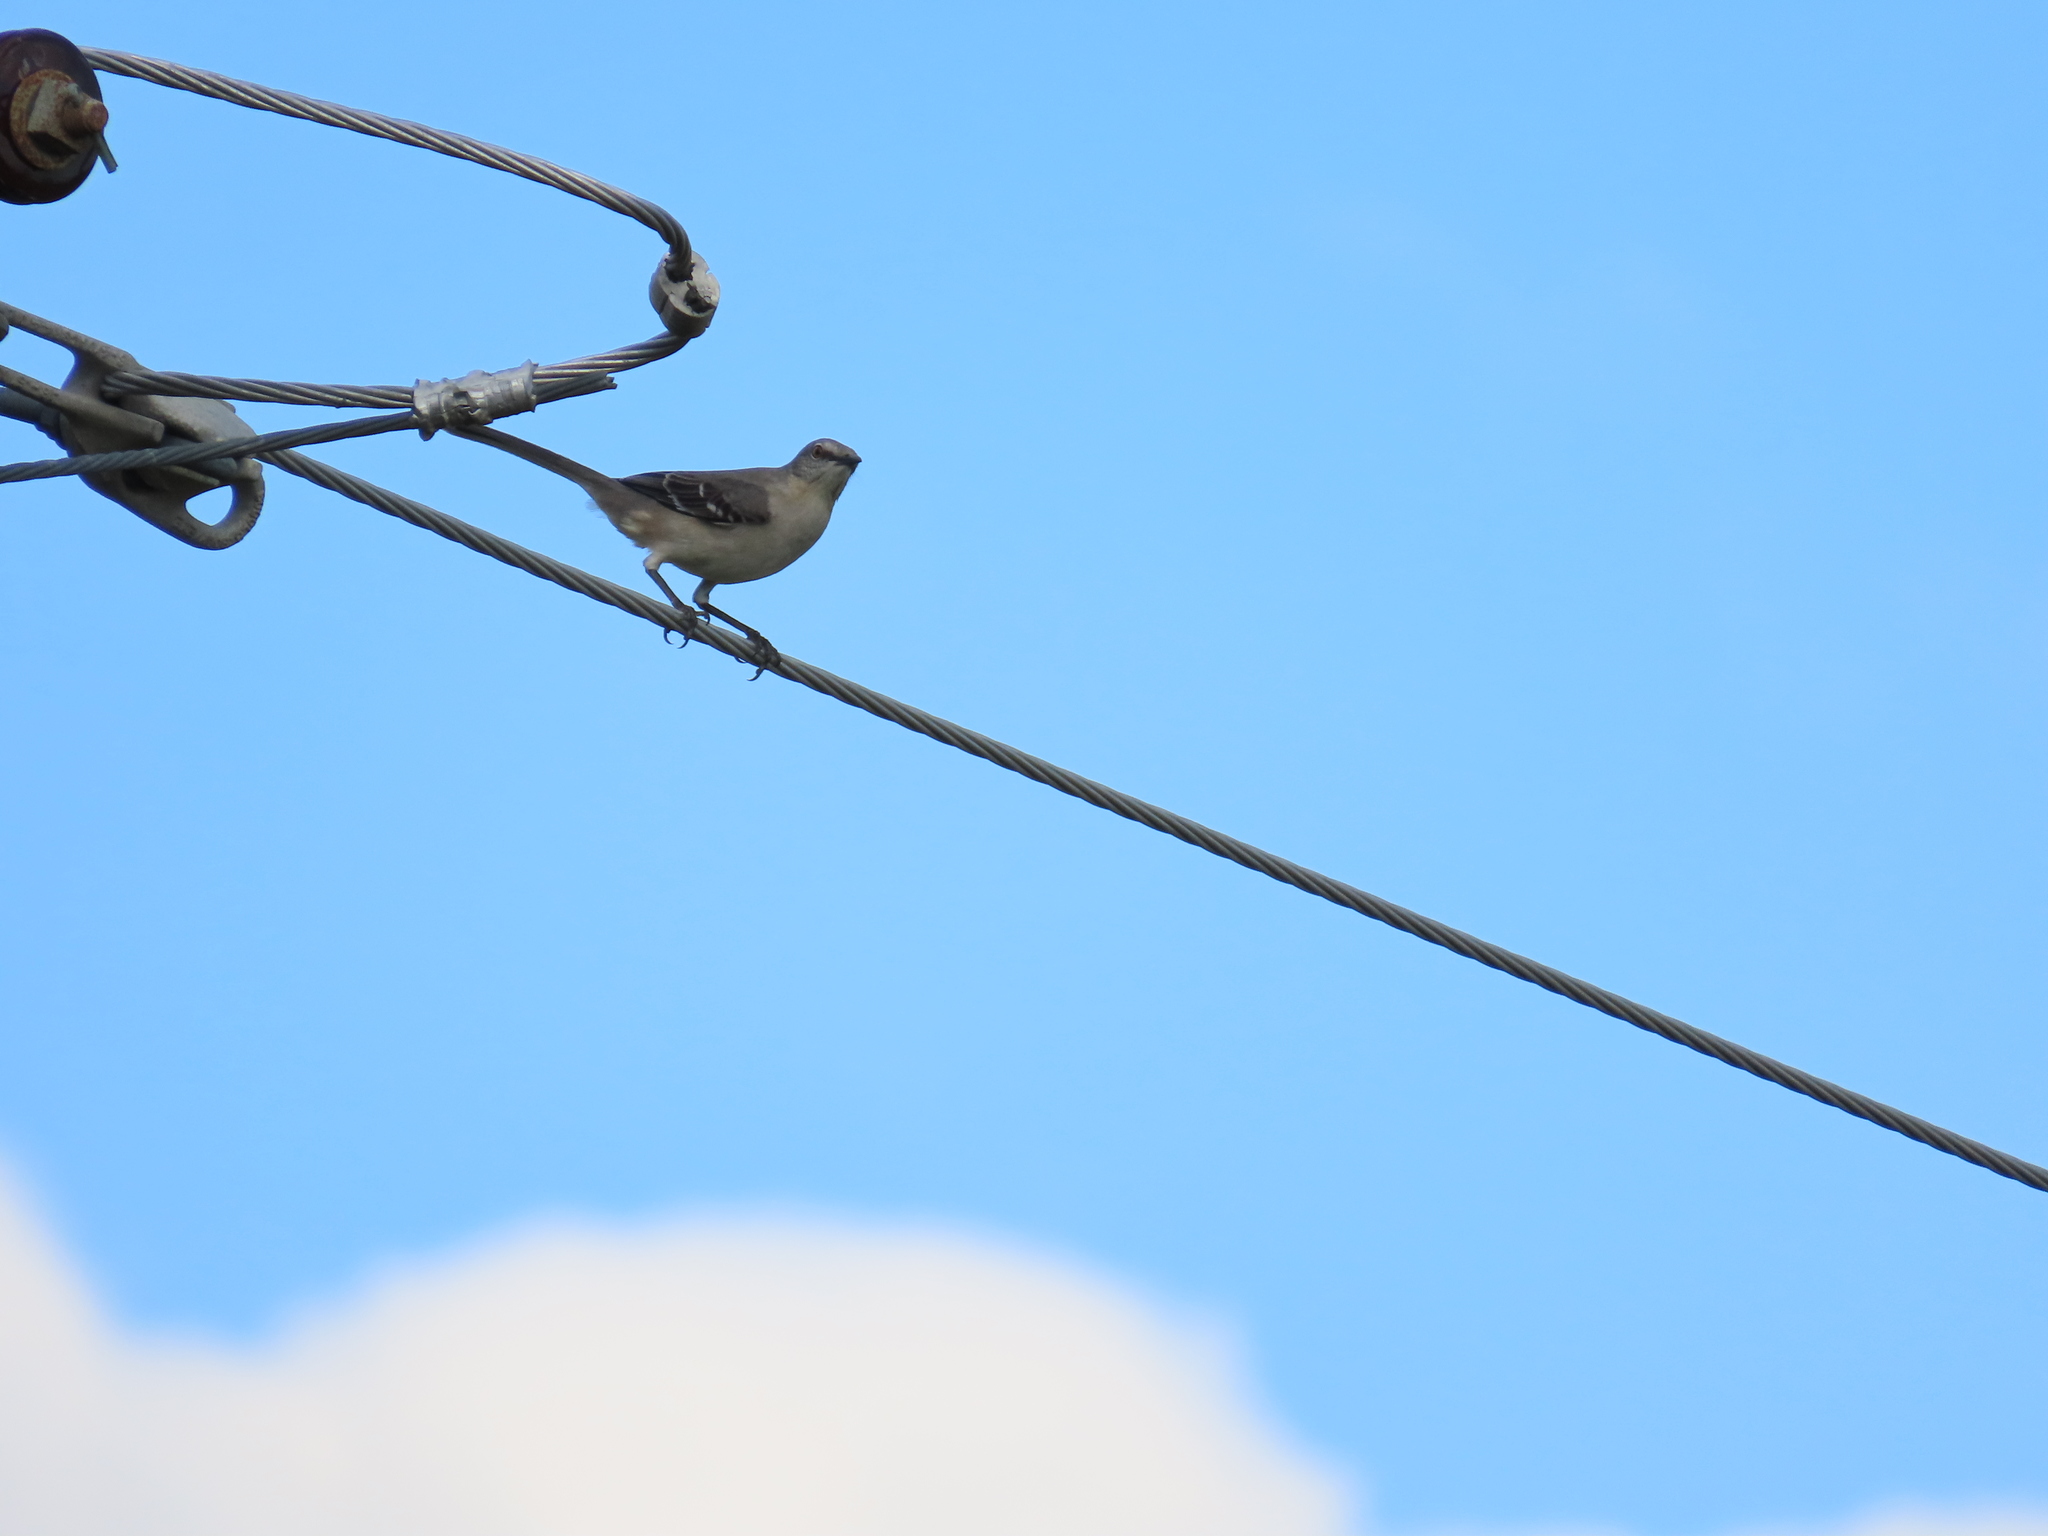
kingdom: Animalia
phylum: Chordata
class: Aves
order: Passeriformes
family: Mimidae
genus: Mimus
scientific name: Mimus polyglottos
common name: Northern mockingbird
